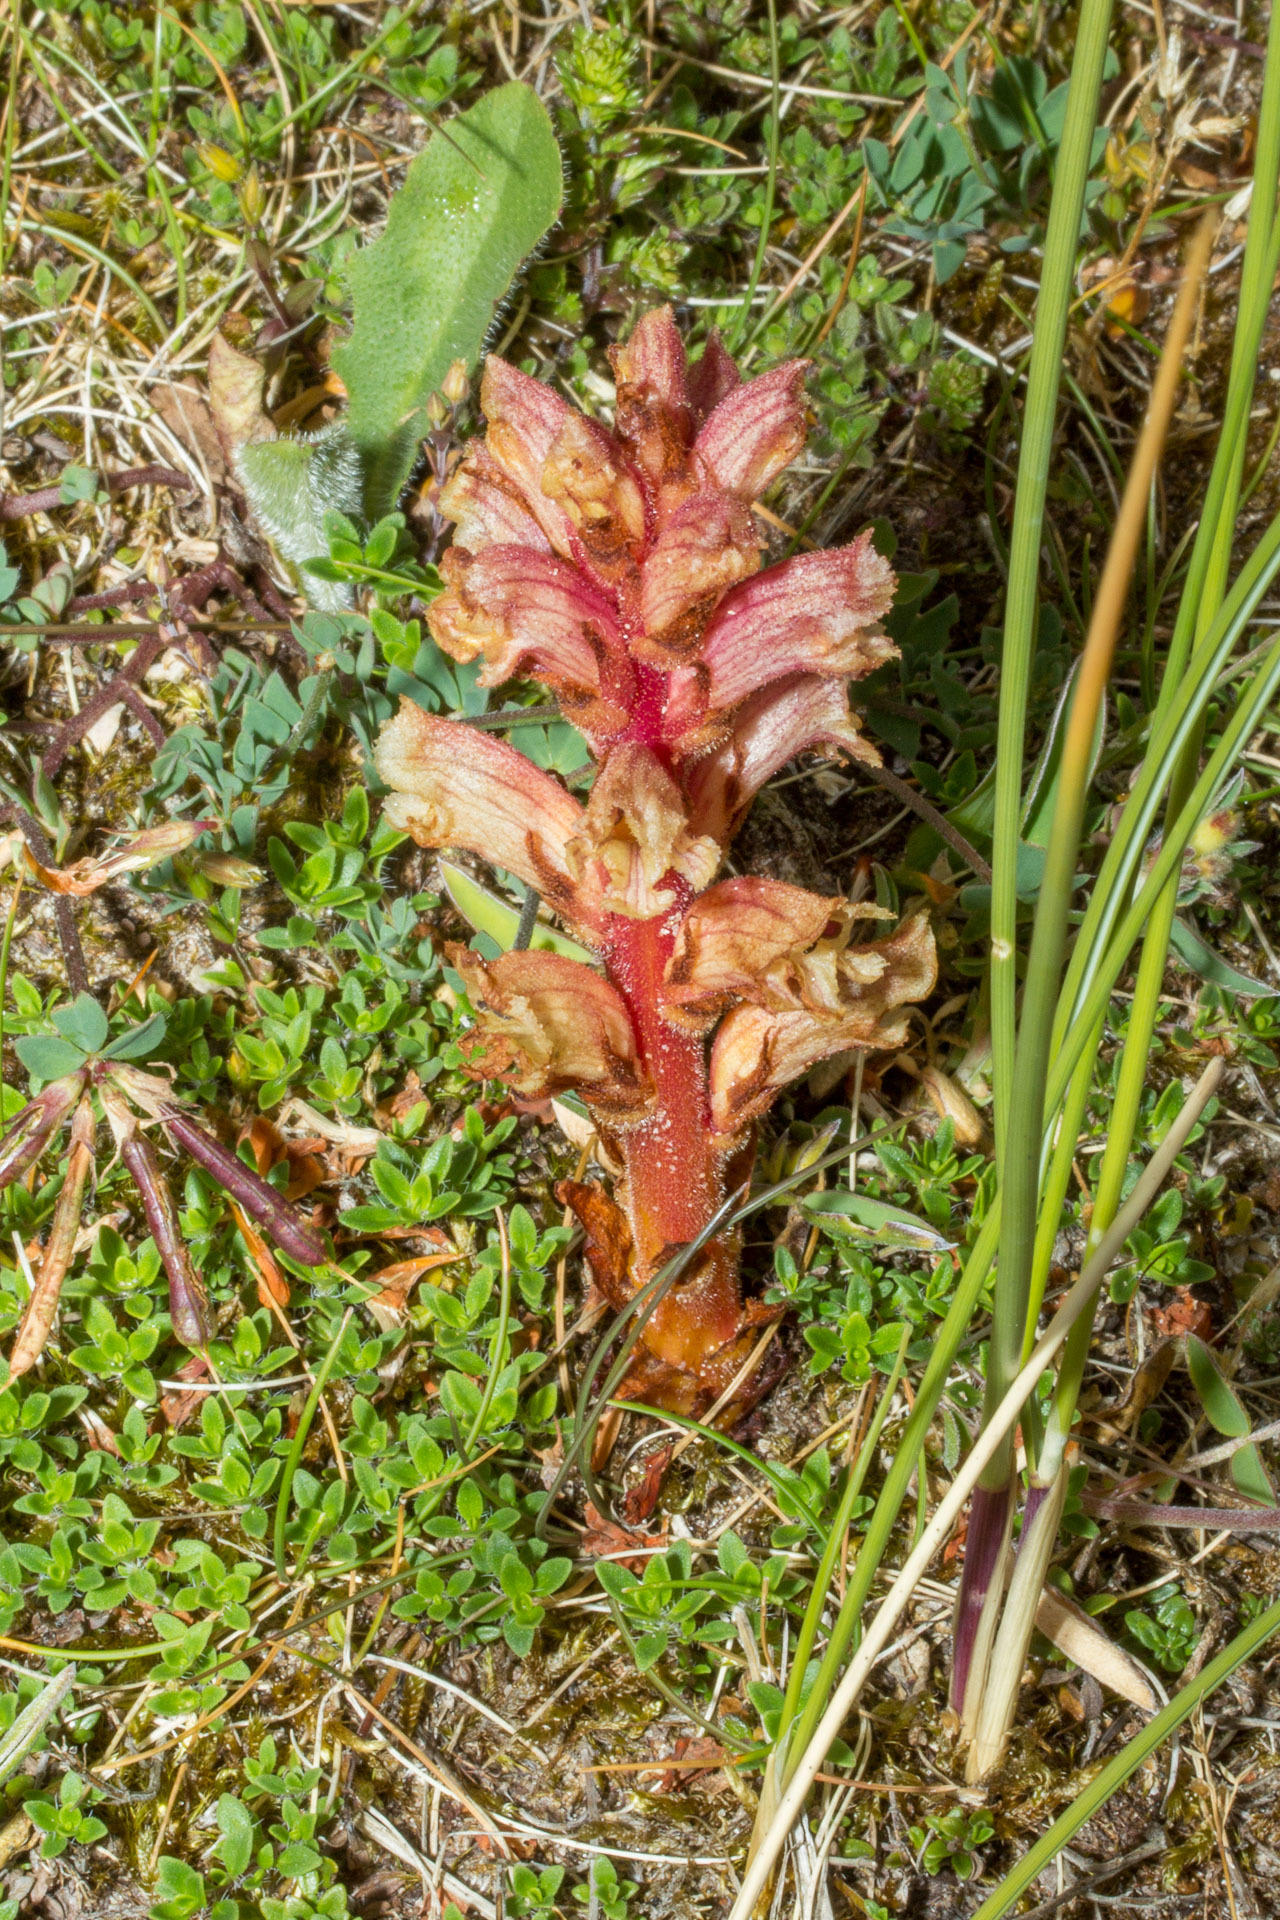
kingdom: Plantae
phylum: Tracheophyta
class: Magnoliopsida
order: Lamiales
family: Orobanchaceae
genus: Orobanche
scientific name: Orobanche alba
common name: Thyme broomrape
